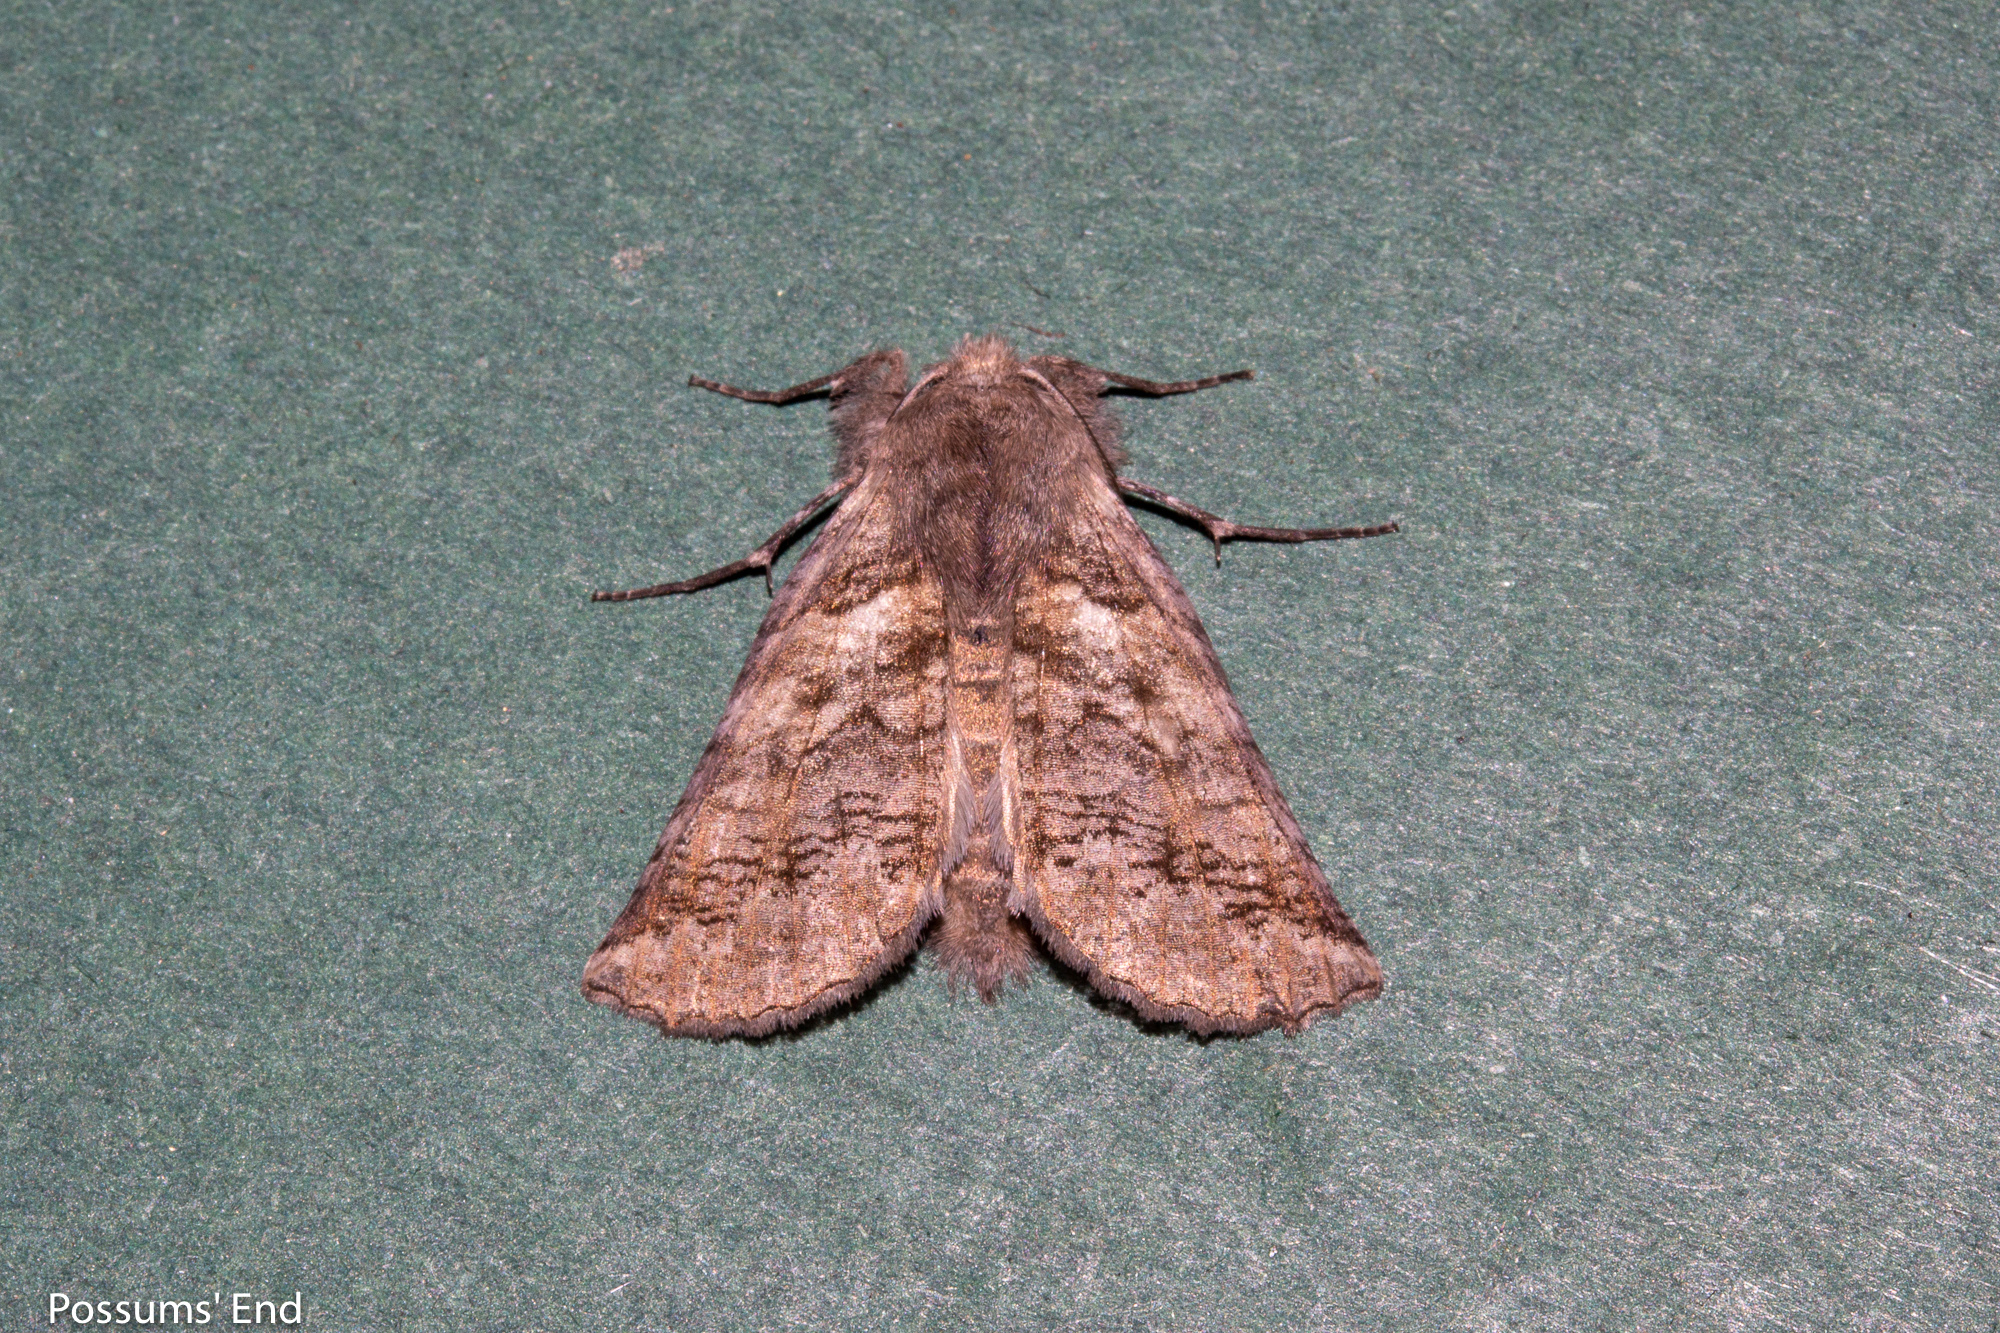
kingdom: Animalia
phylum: Arthropoda
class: Insecta
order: Lepidoptera
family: Geometridae
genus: Declana
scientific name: Declana
